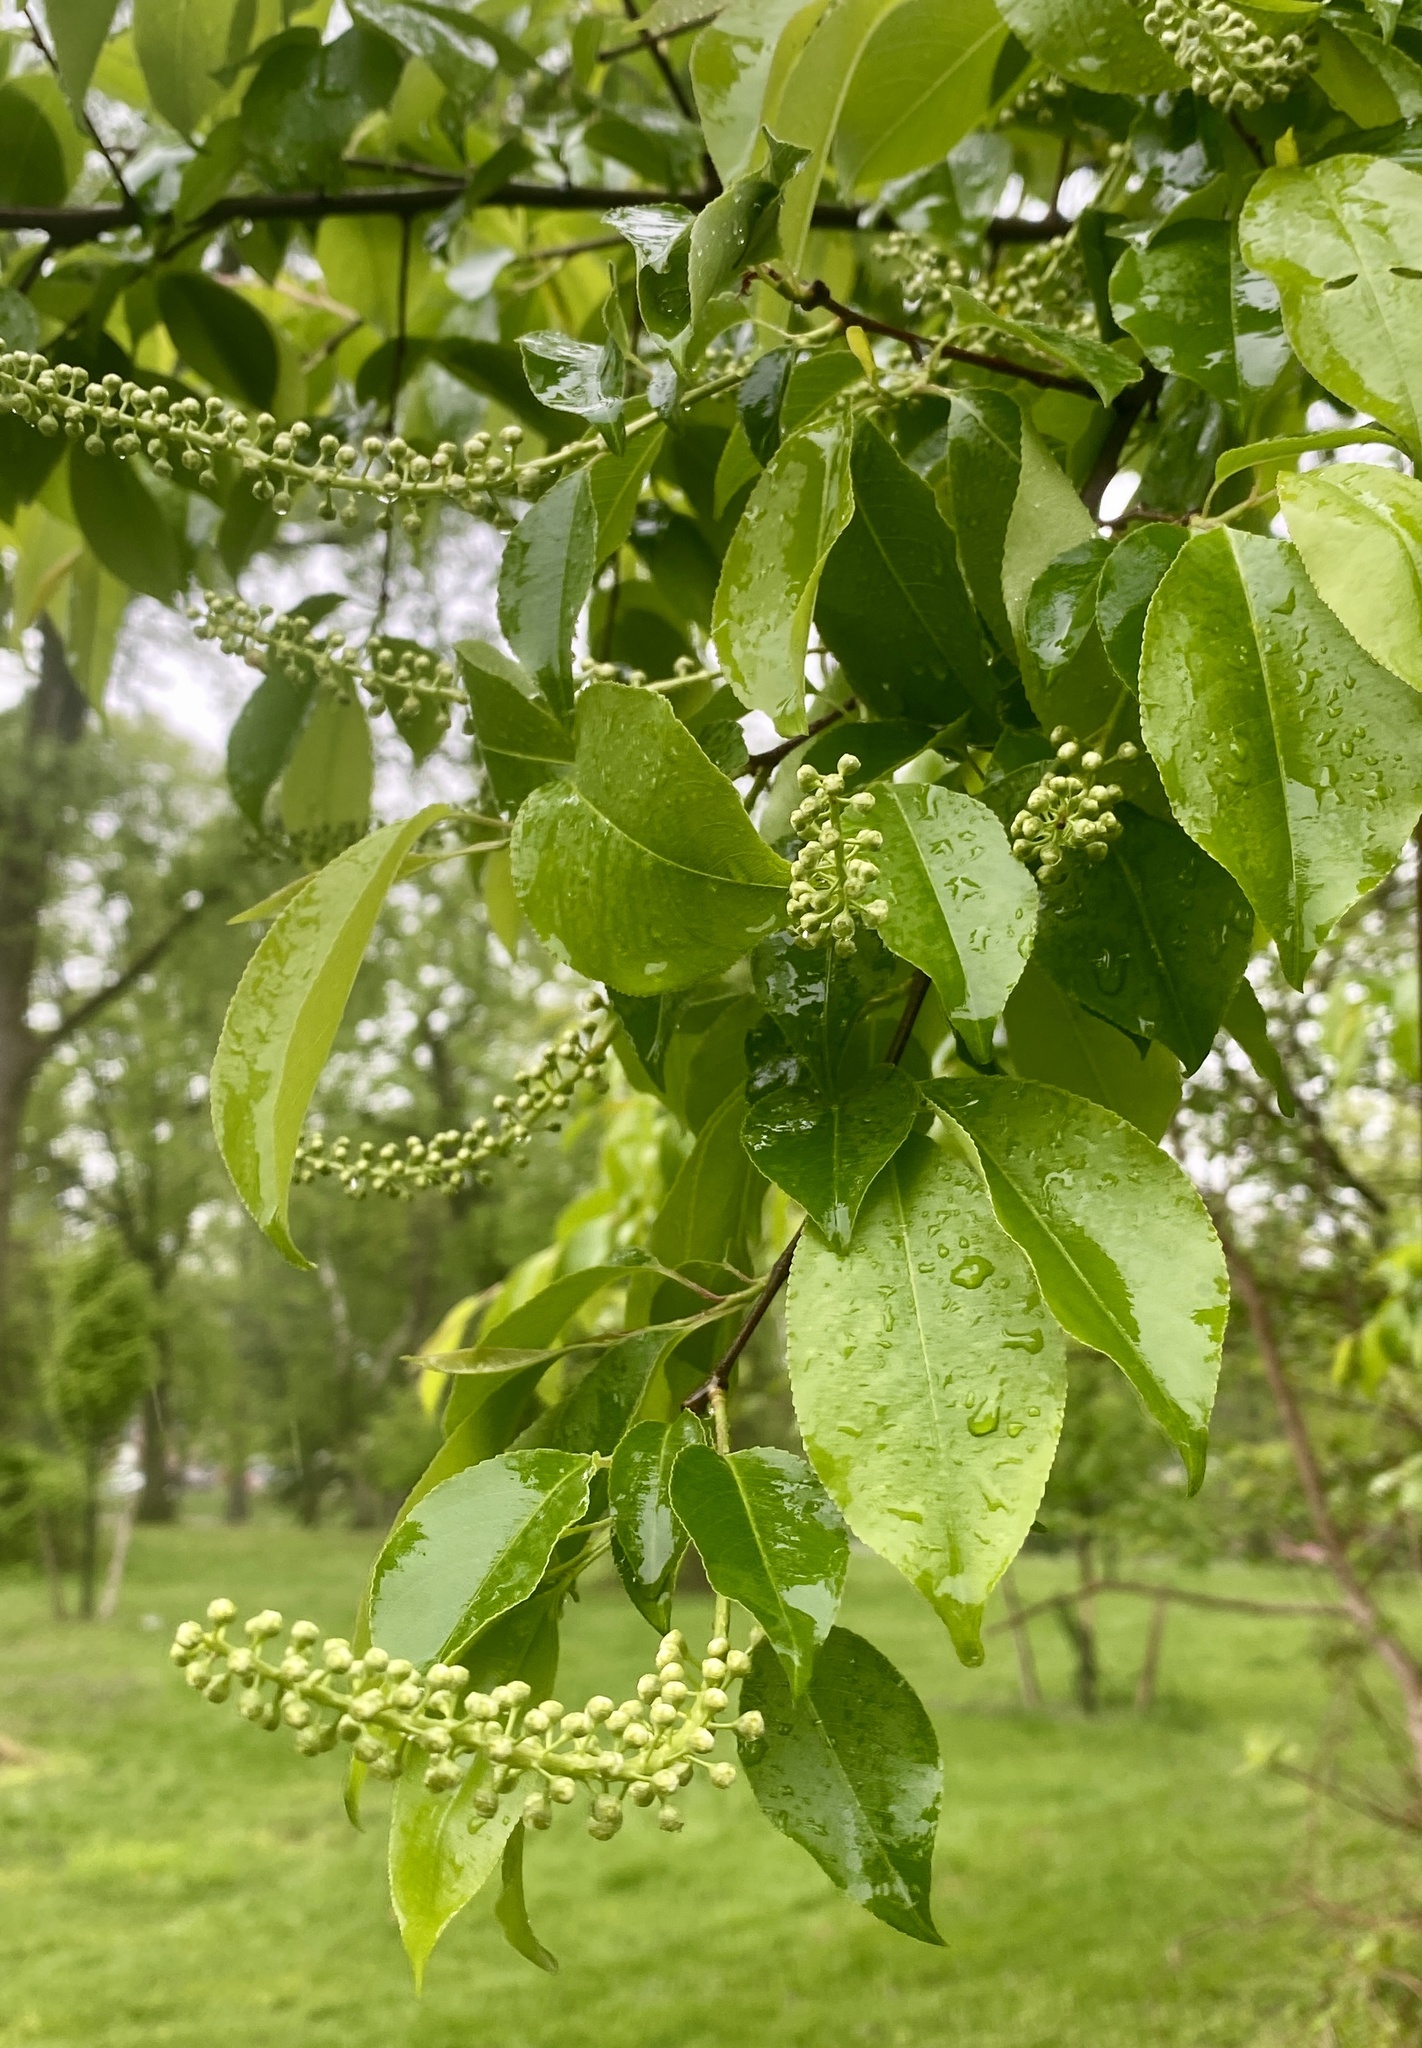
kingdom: Plantae
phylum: Tracheophyta
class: Magnoliopsida
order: Rosales
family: Rosaceae
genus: Prunus
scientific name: Prunus serotina
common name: Black cherry
